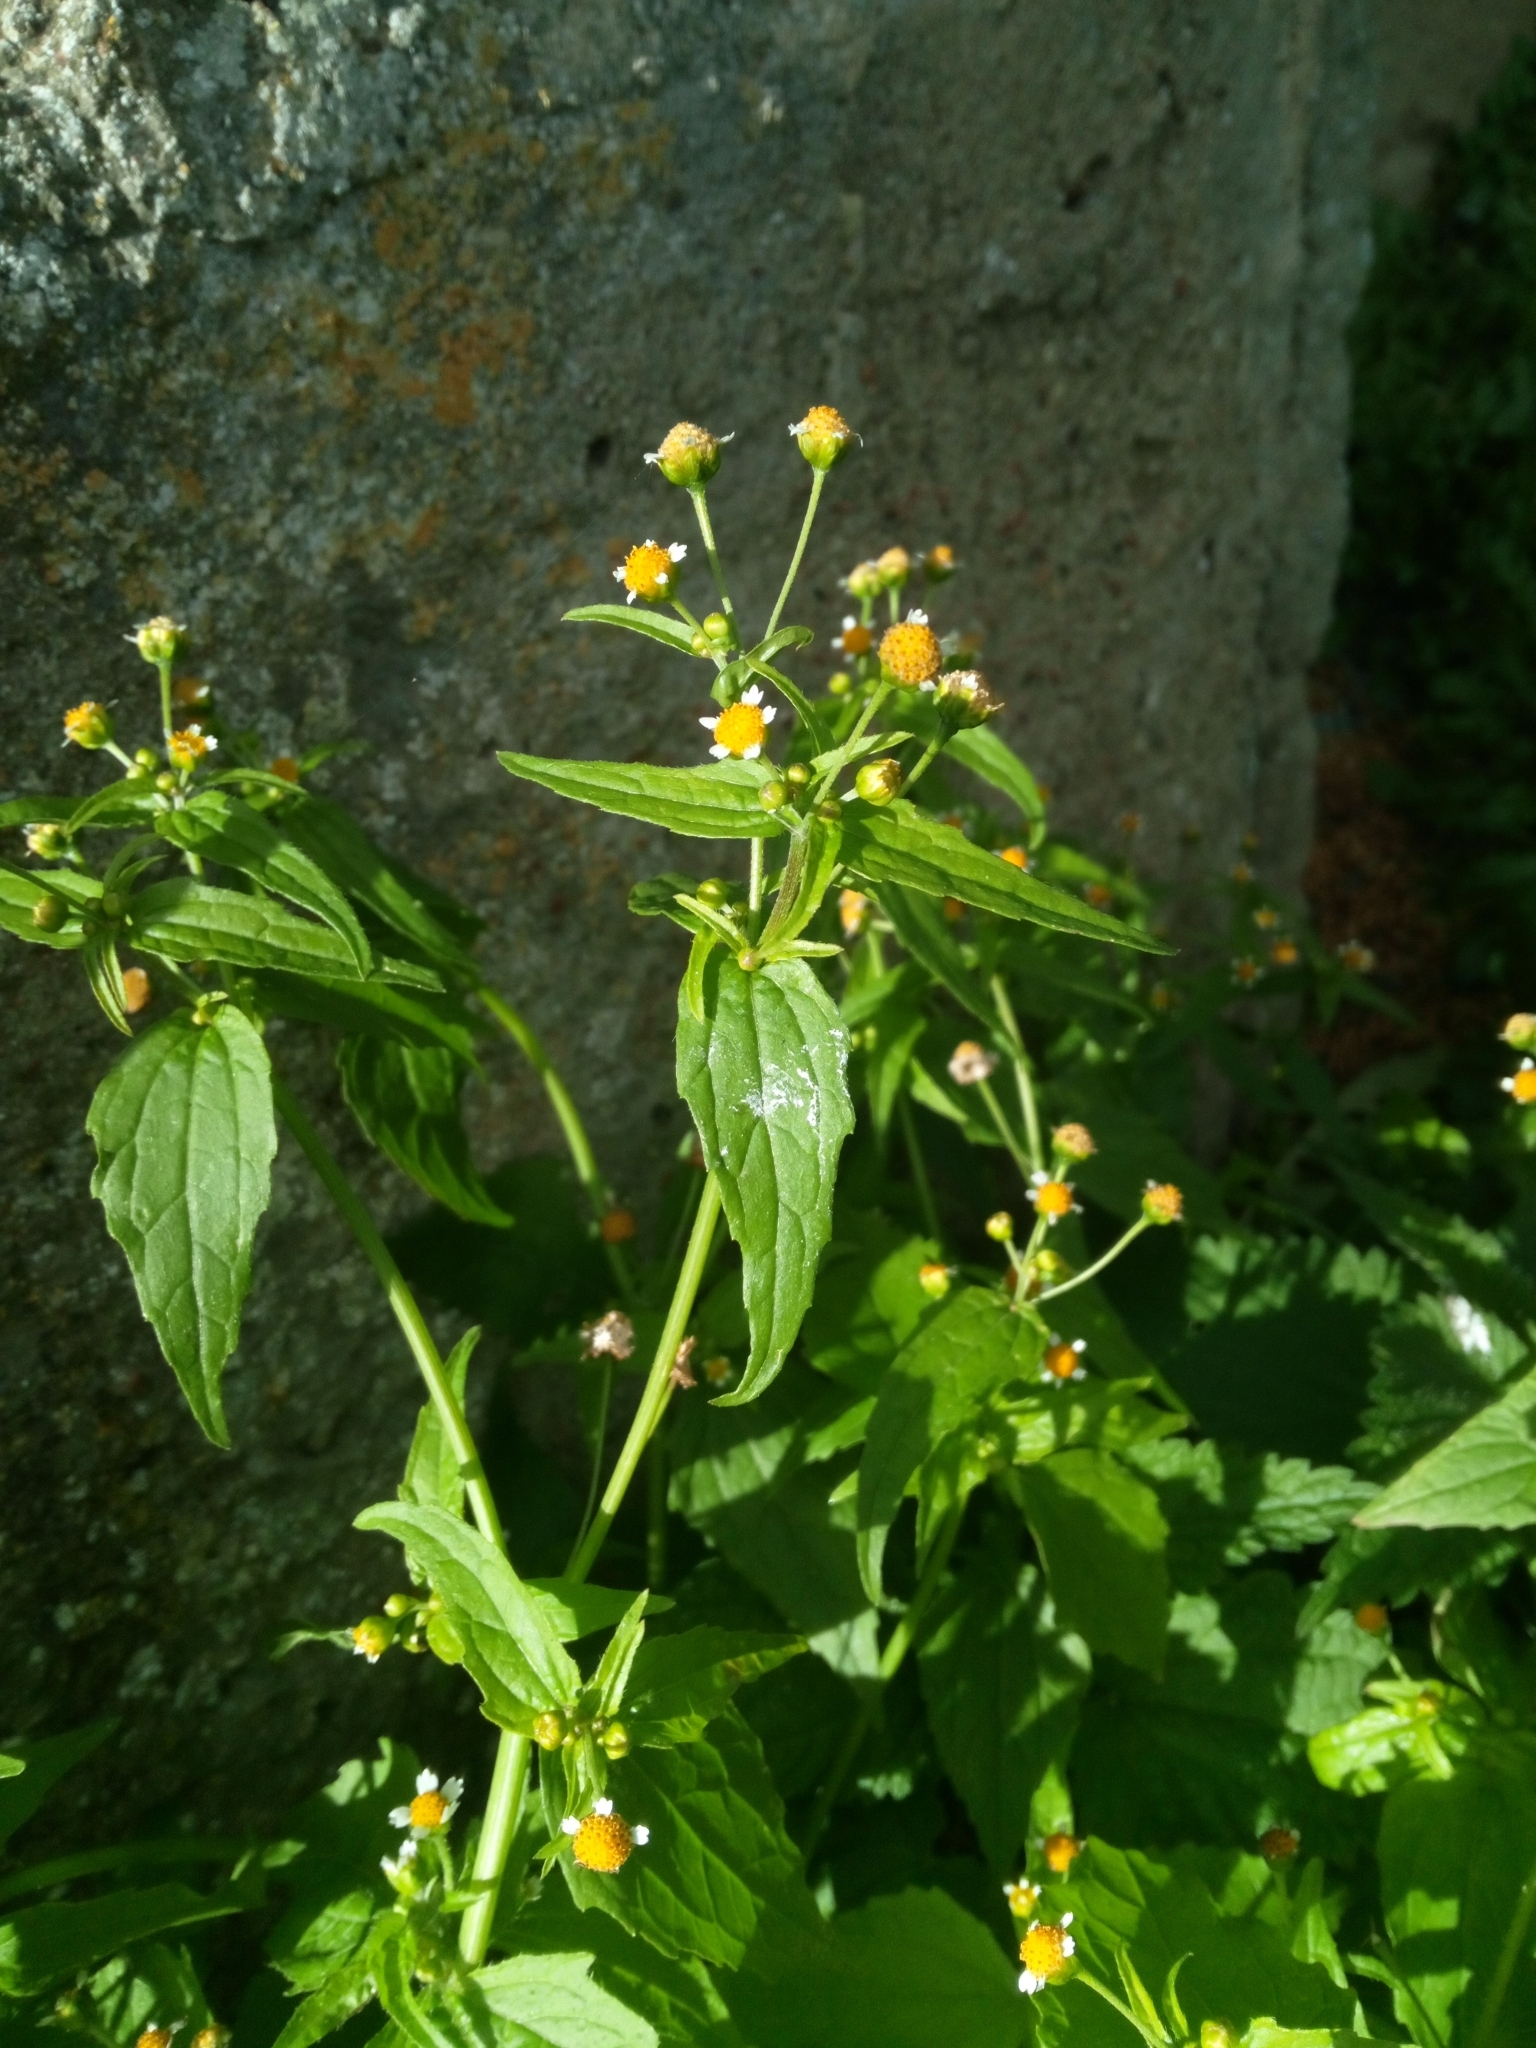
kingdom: Plantae
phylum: Tracheophyta
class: Magnoliopsida
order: Asterales
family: Asteraceae
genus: Galinsoga
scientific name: Galinsoga parviflora
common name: Gallant soldier
